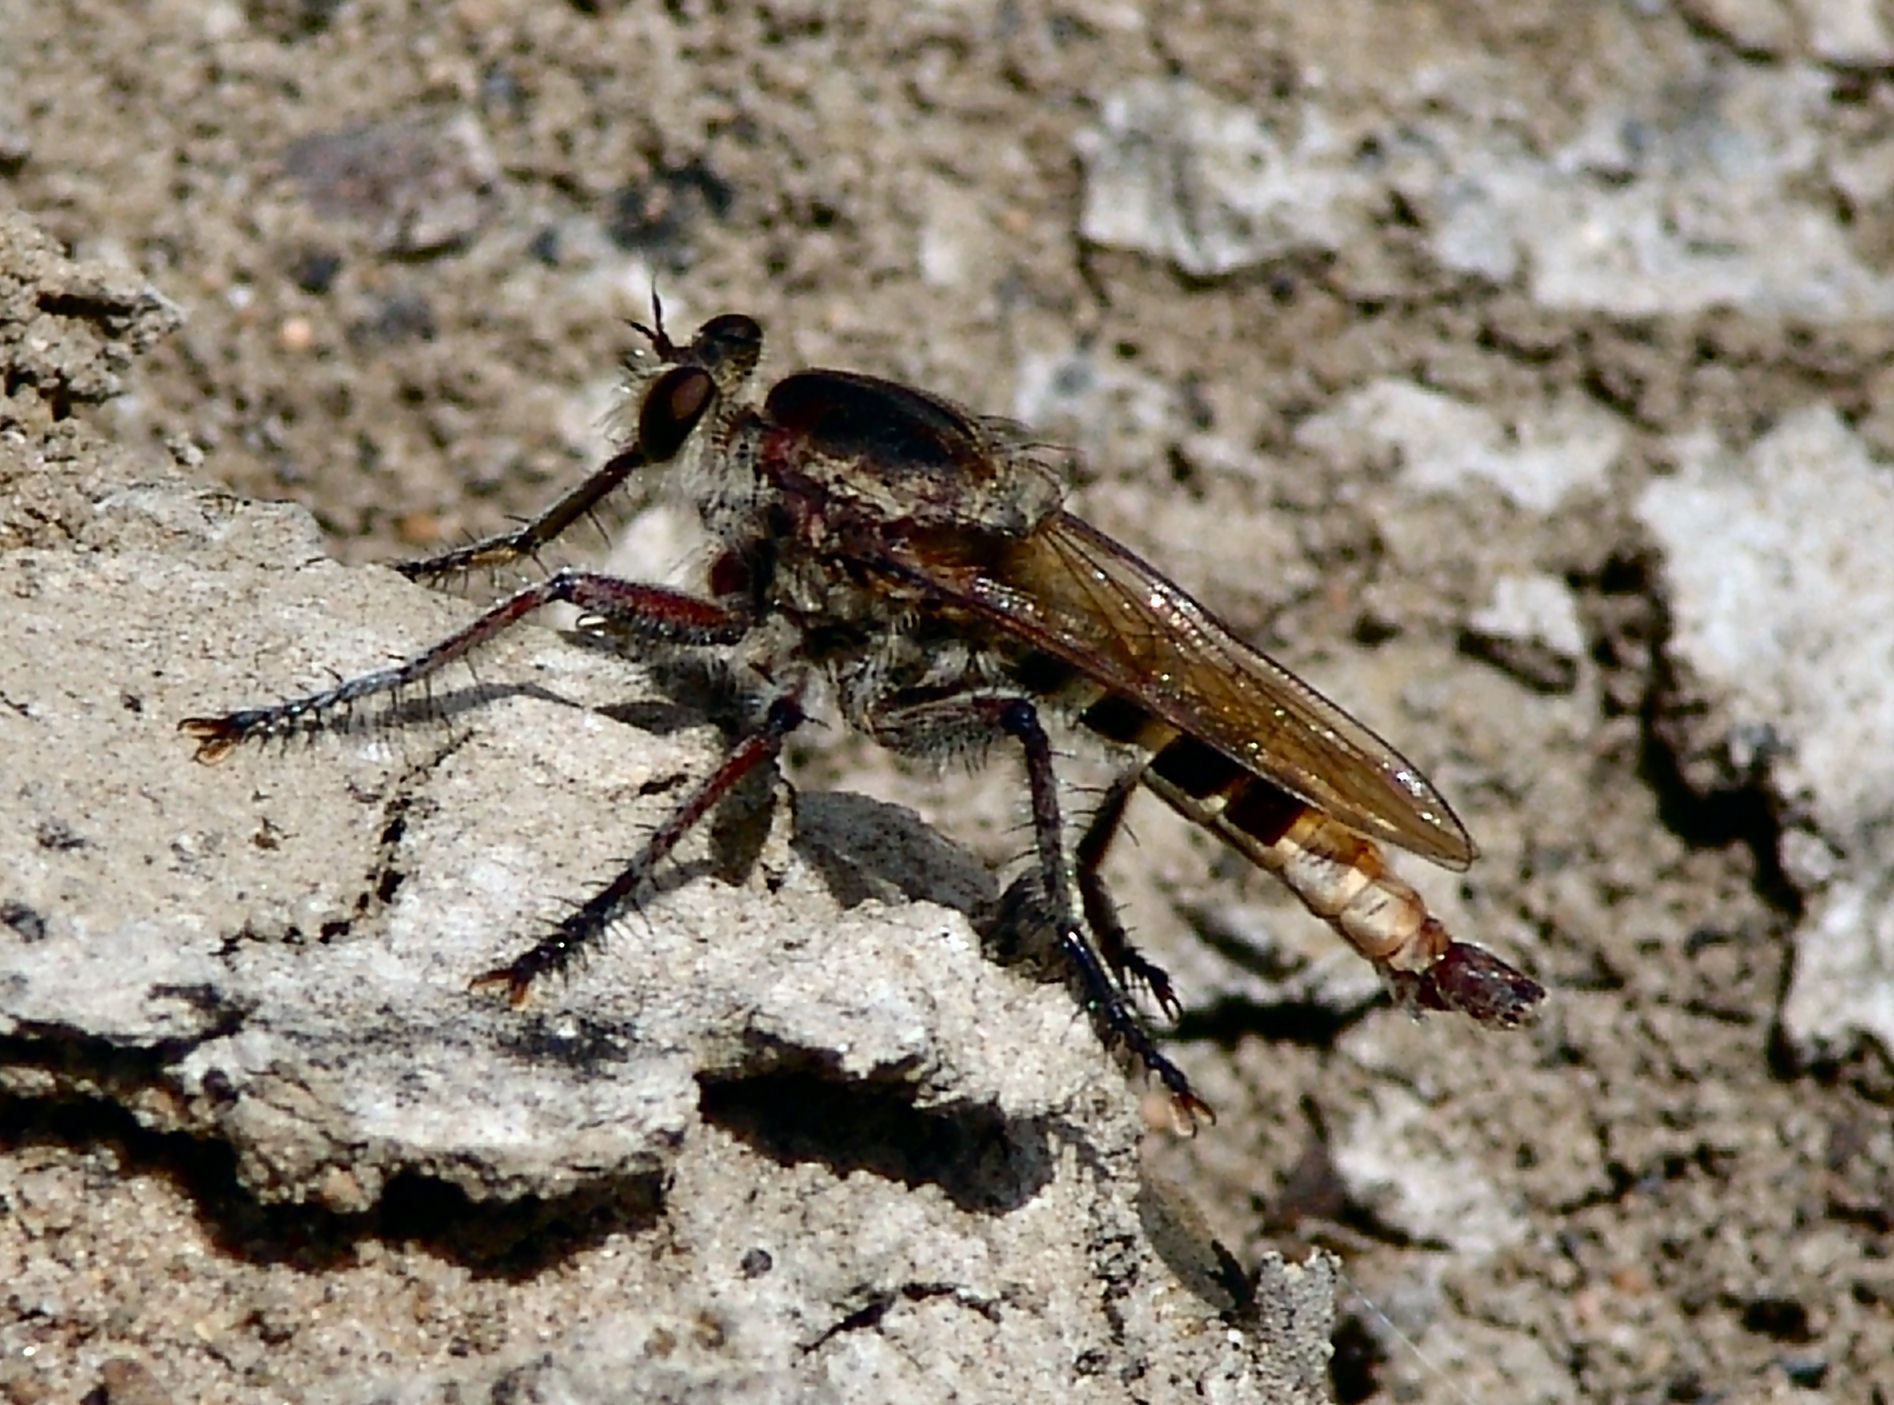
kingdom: Animalia
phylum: Arthropoda
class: Insecta
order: Diptera
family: Asilidae
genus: Triorla
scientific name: Triorla interrupta
